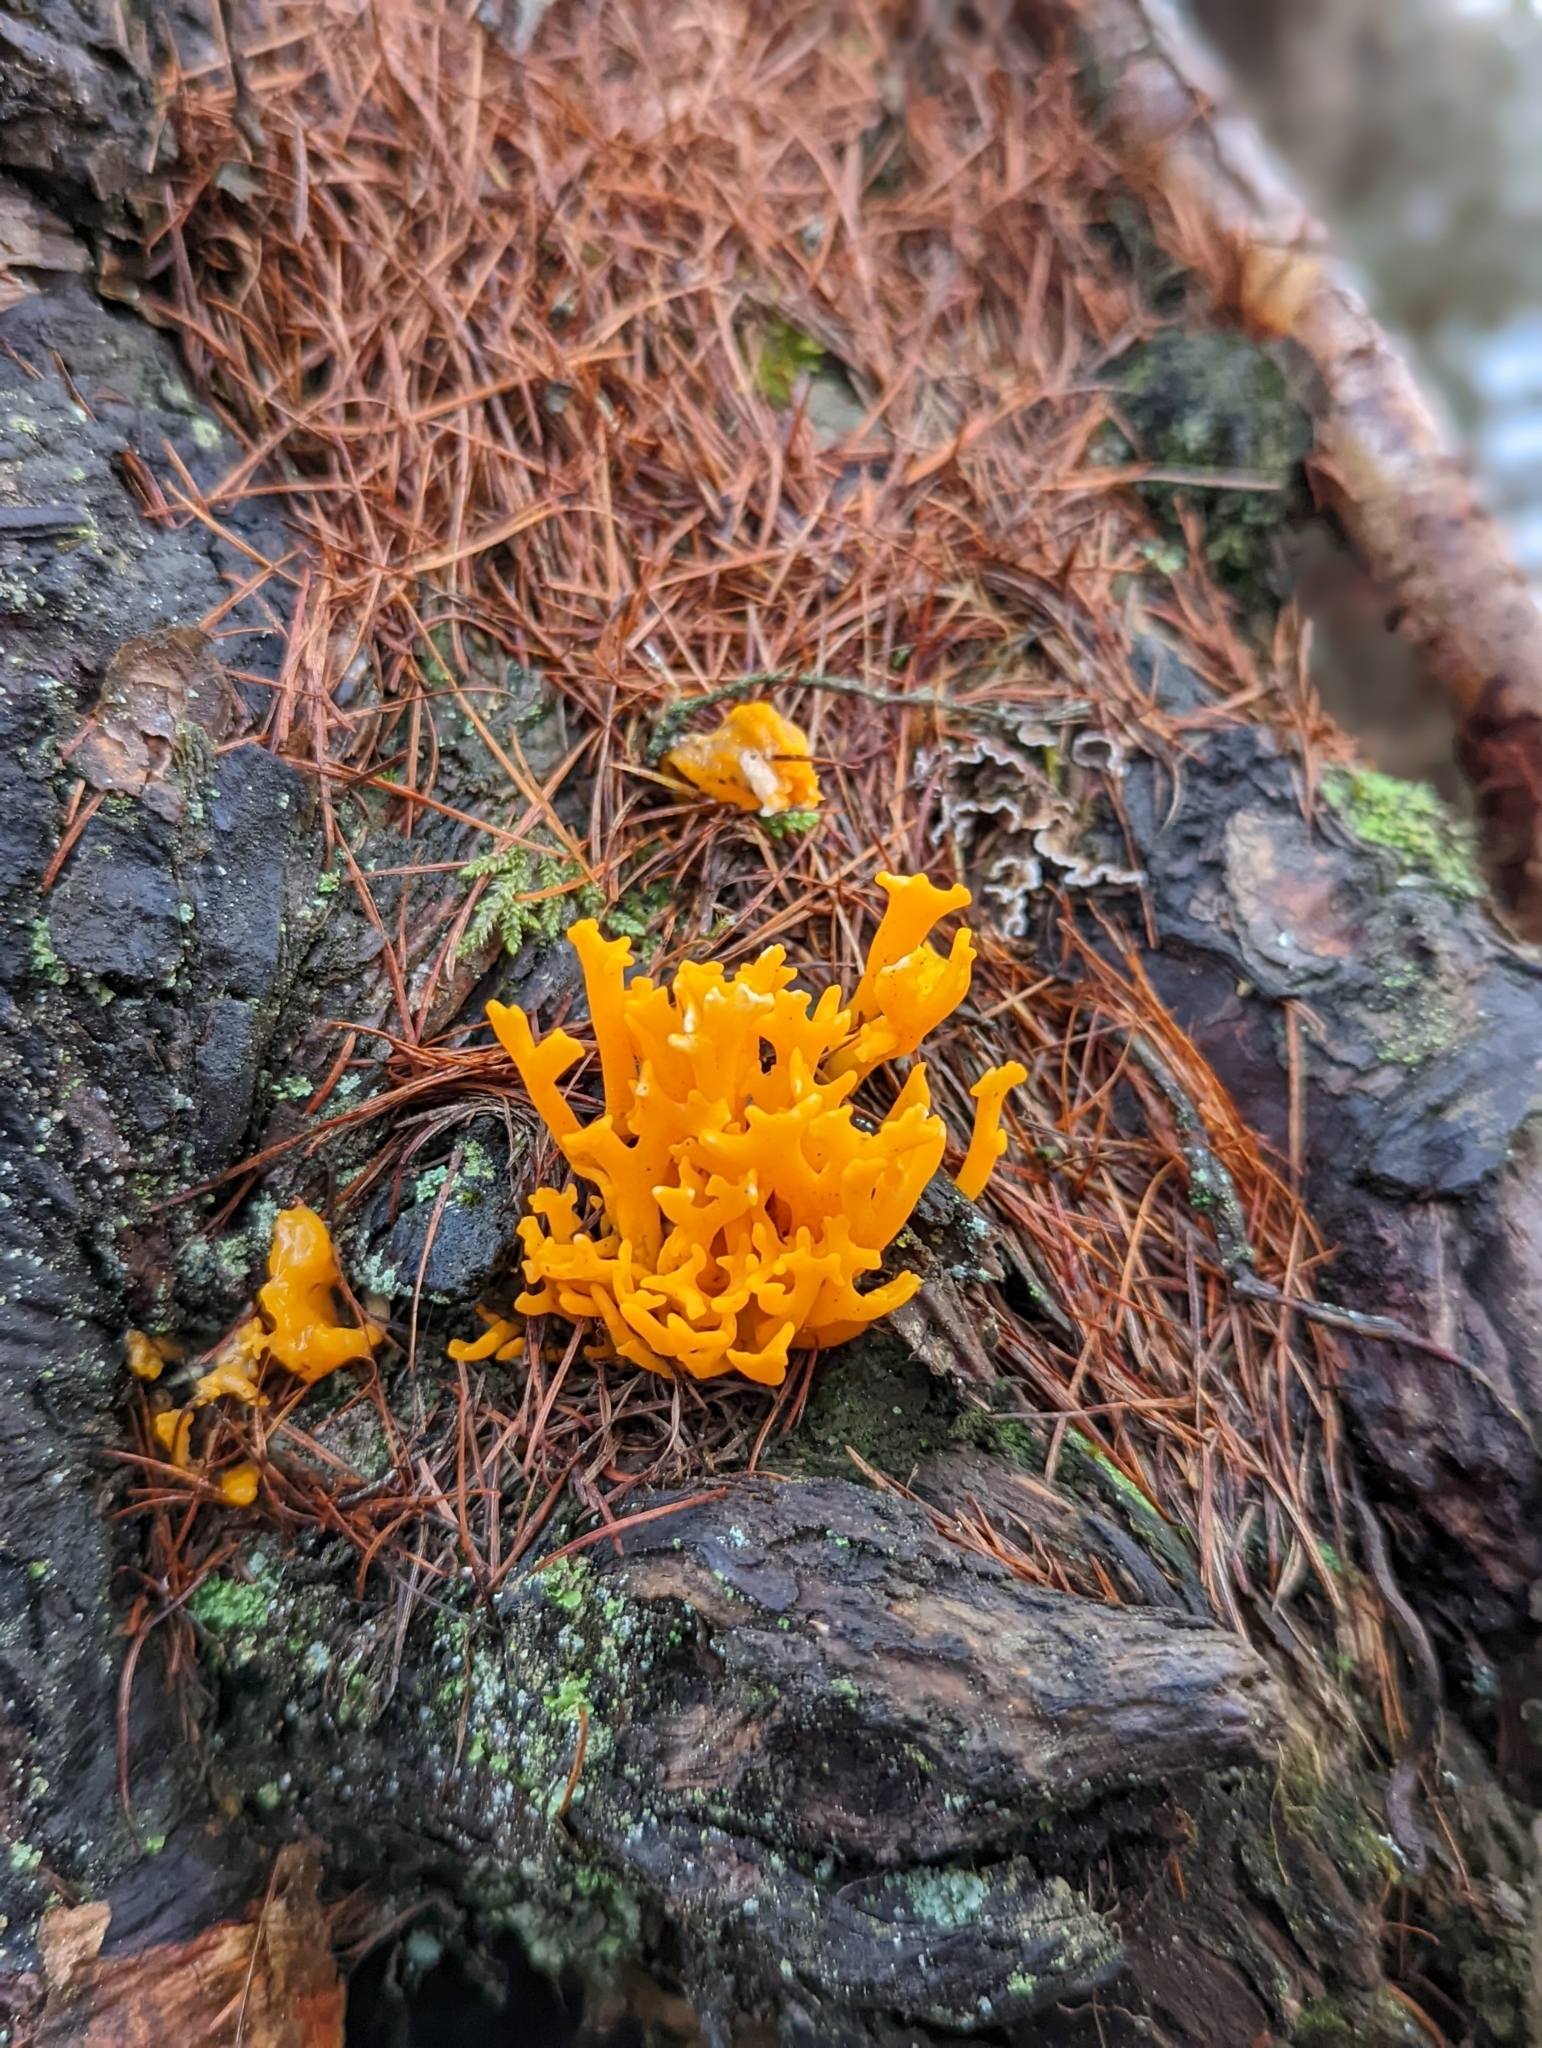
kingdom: Fungi
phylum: Basidiomycota
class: Dacrymycetes
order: Dacrymycetales
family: Dacrymycetaceae
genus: Calocera
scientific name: Calocera viscosa
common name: Yellow stagshorn
